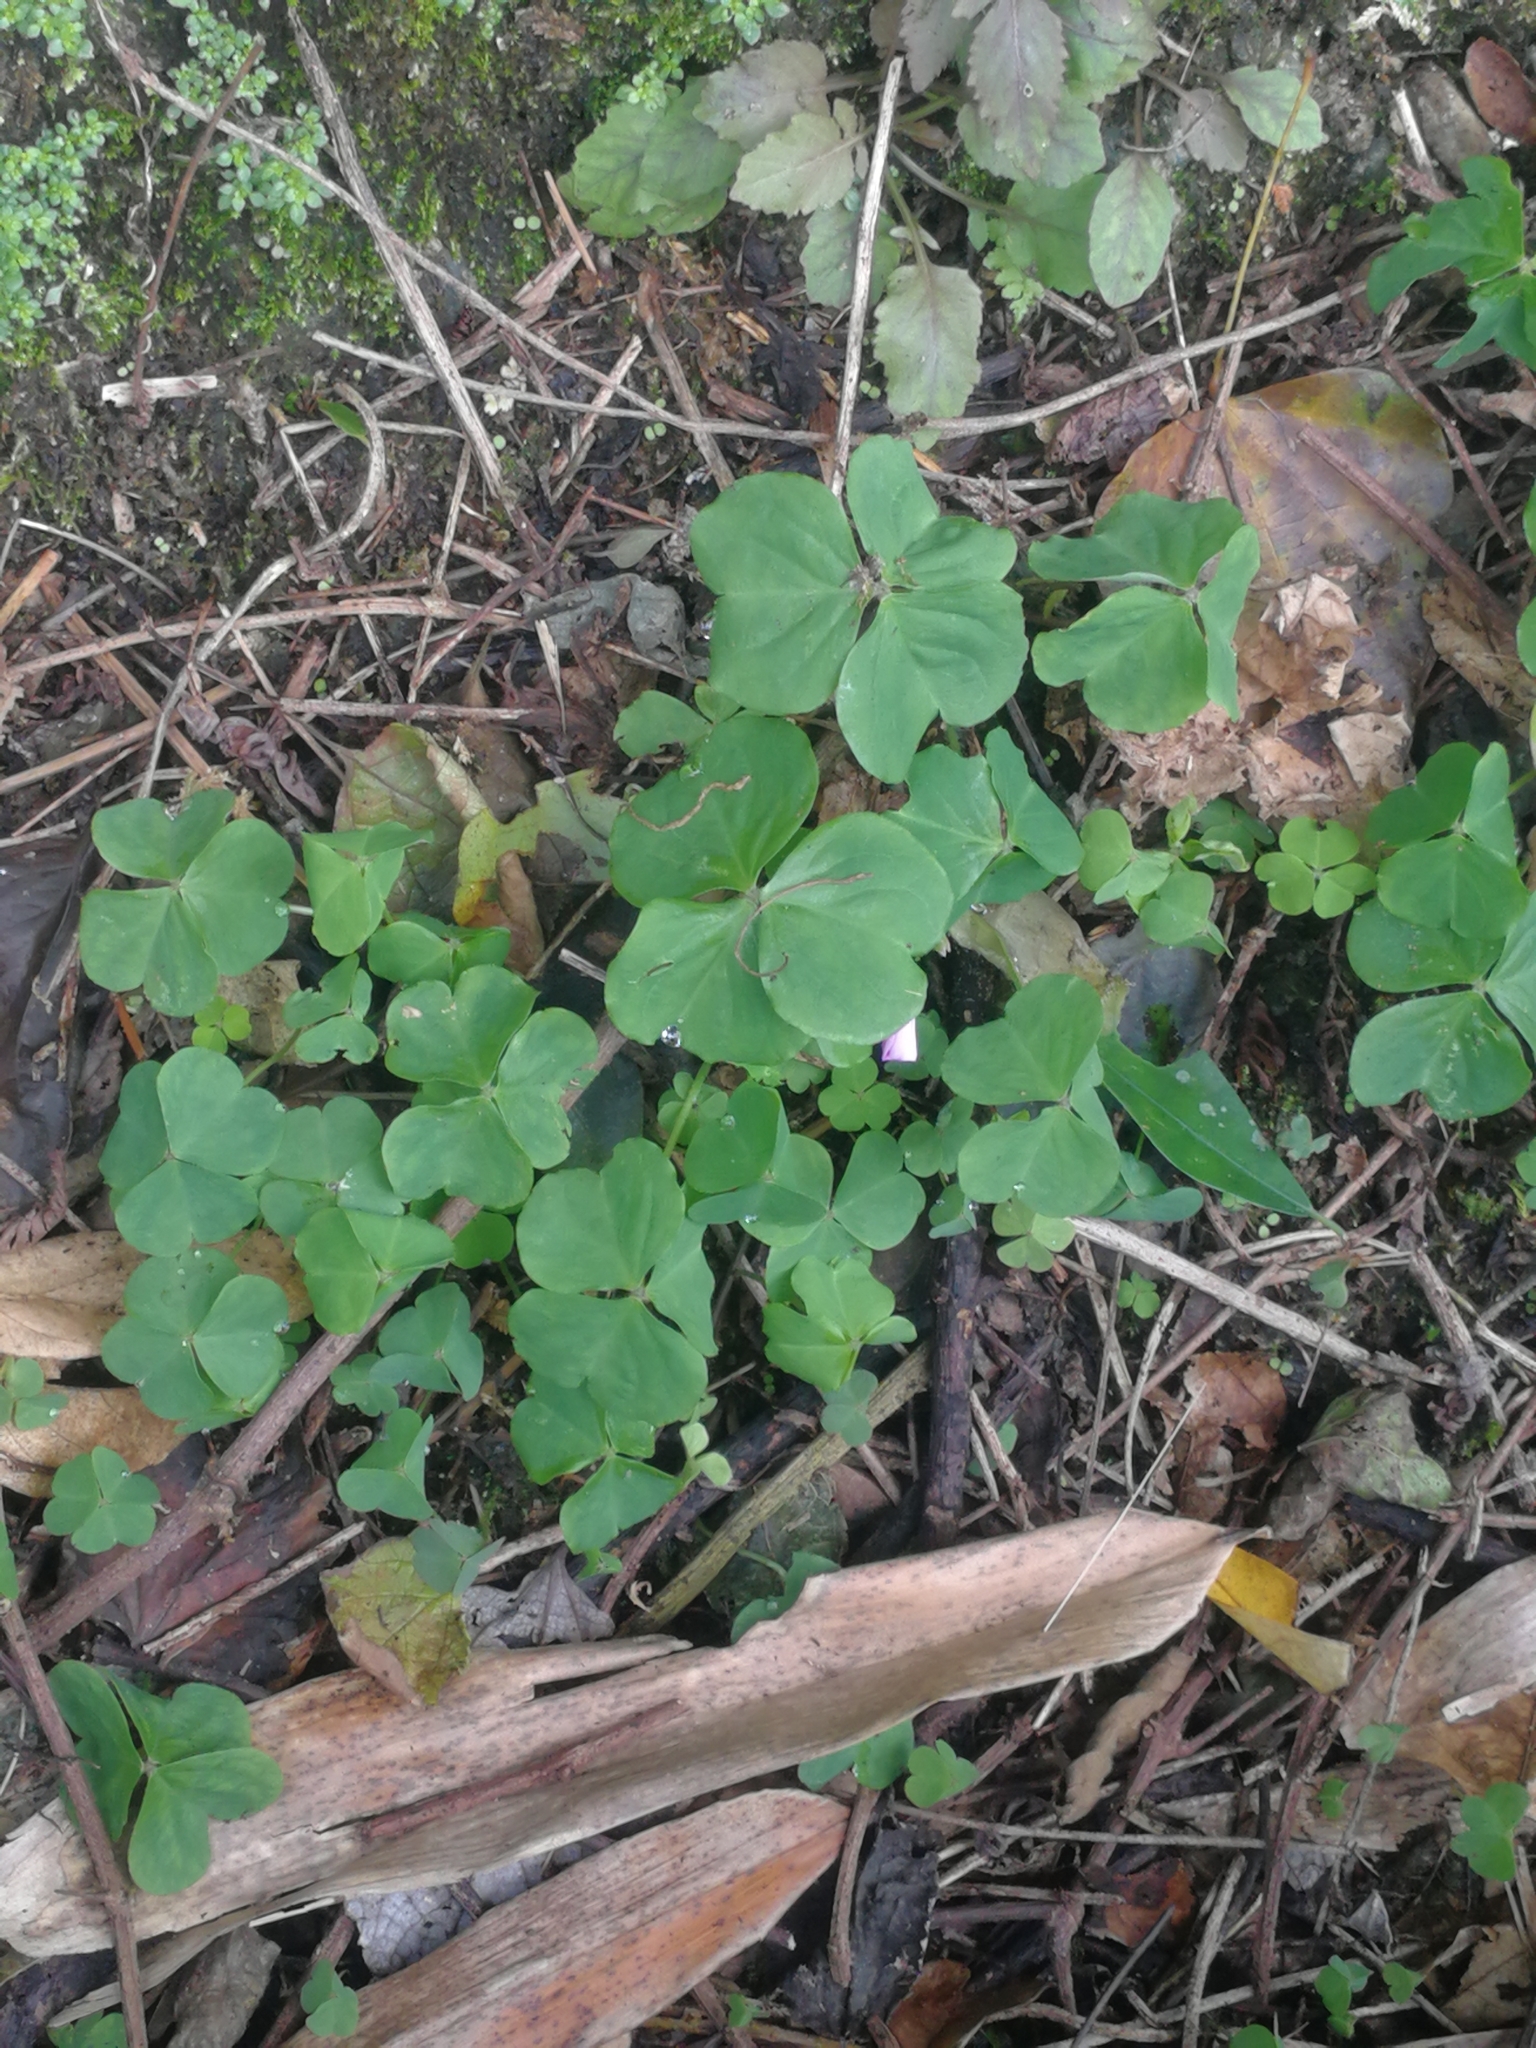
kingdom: Plantae
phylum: Tracheophyta
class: Magnoliopsida
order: Oxalidales
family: Oxalidaceae
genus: Oxalis
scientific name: Oxalis debilis
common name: Large-flowered pink-sorrel
